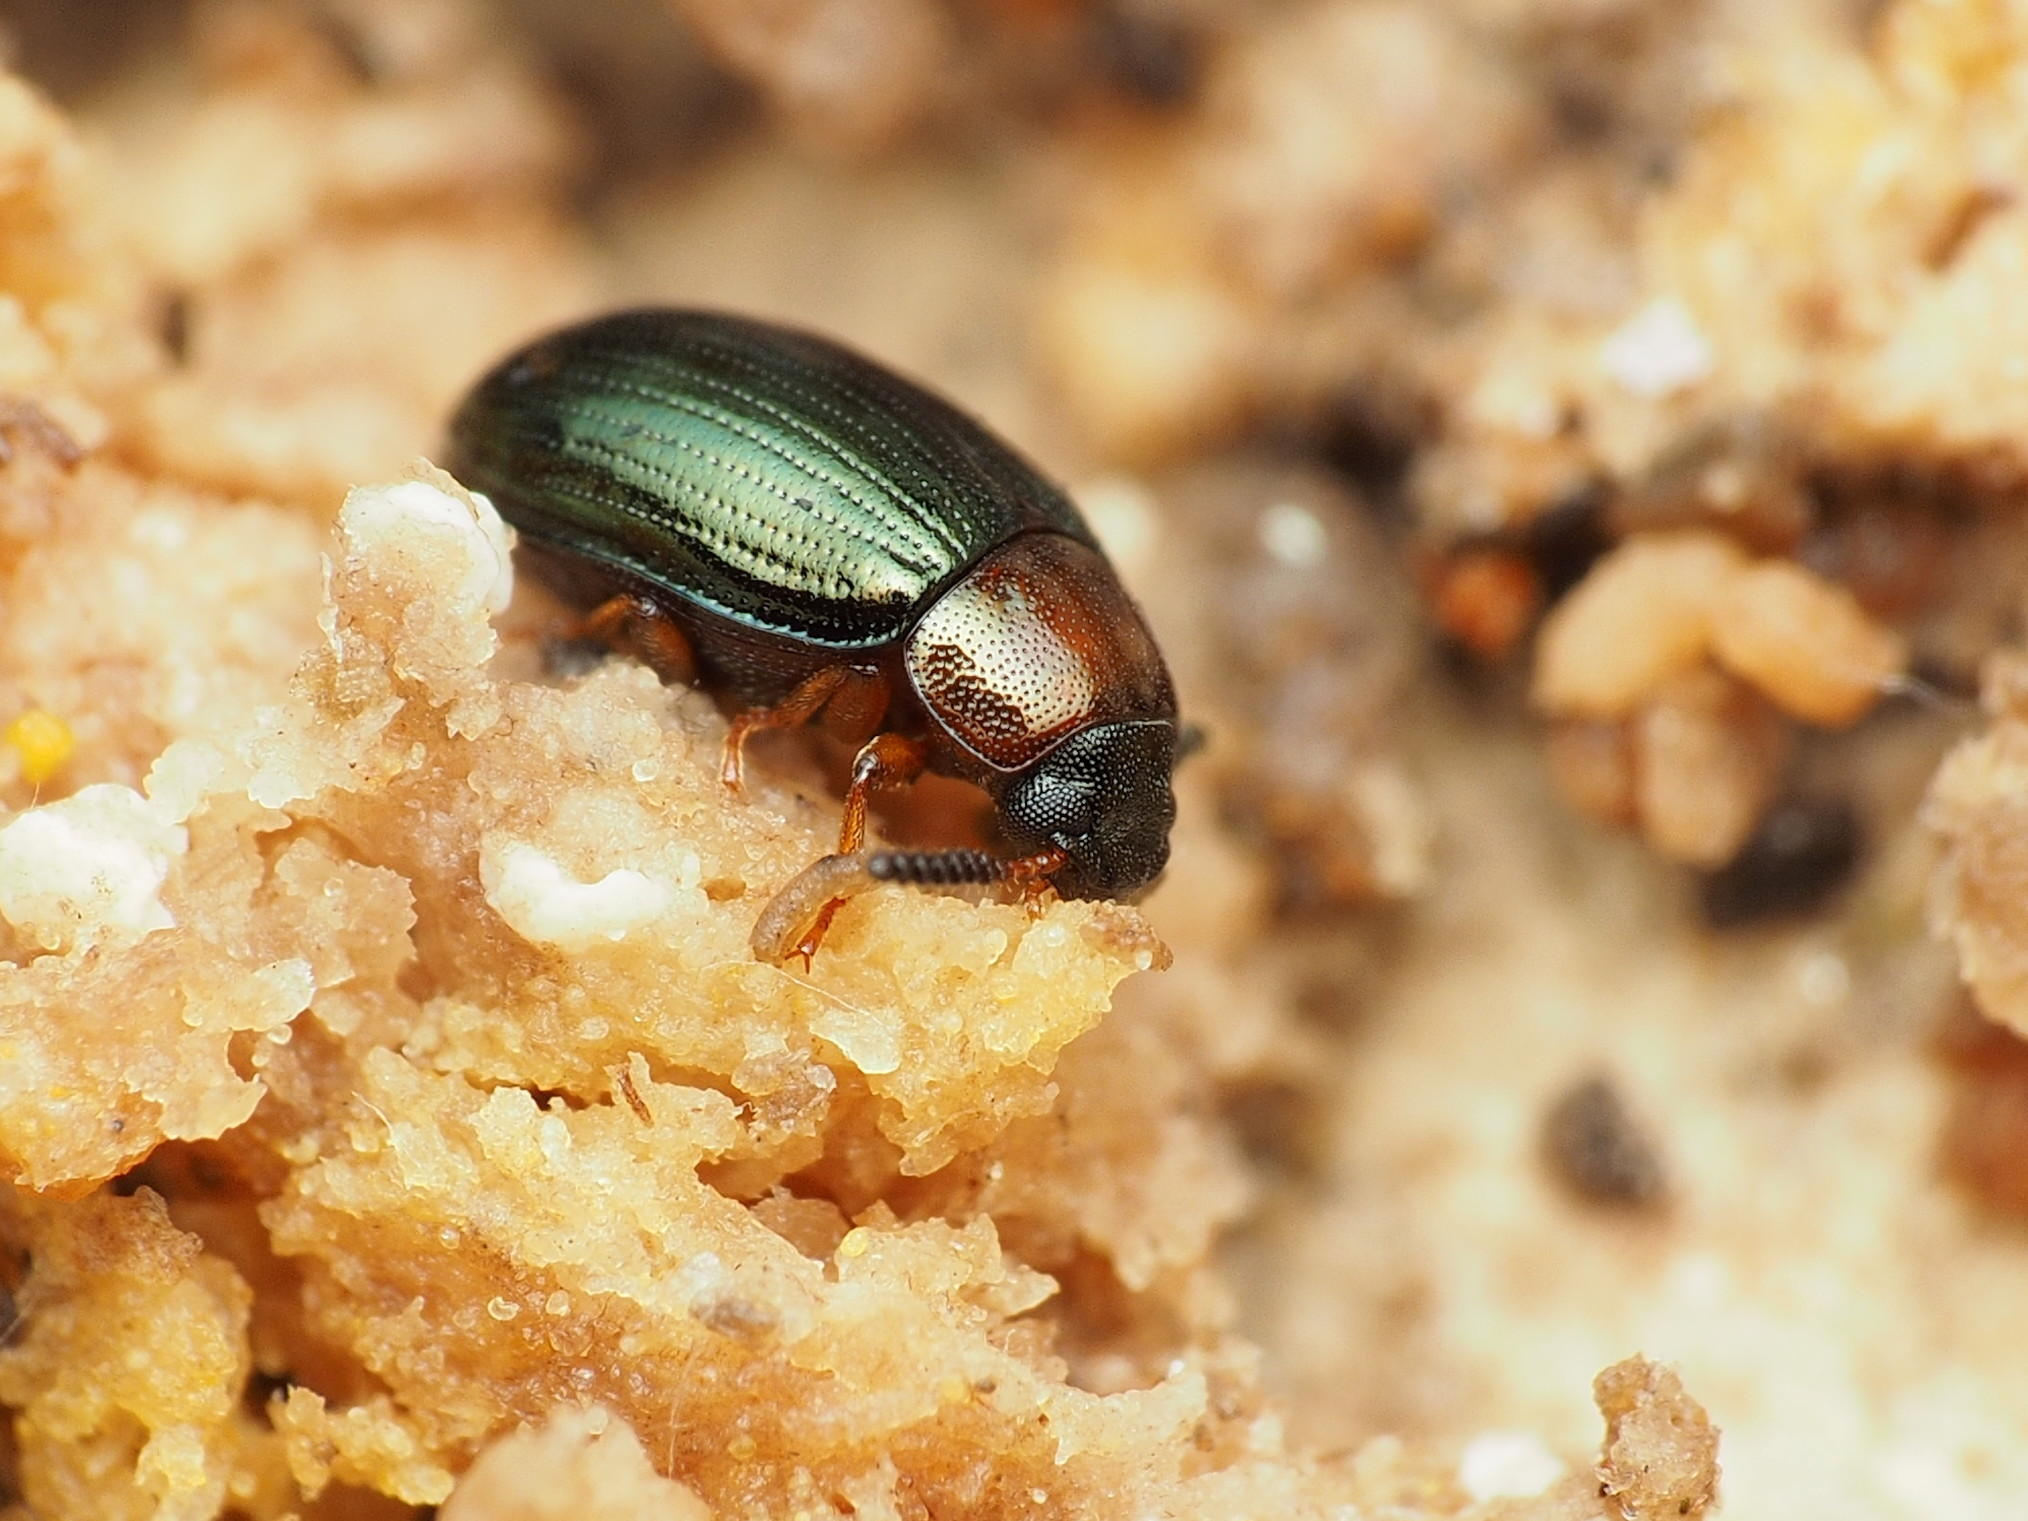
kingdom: Animalia
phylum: Arthropoda
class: Insecta
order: Coleoptera
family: Tenebrionidae
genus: Neomida
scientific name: Neomida bicornis
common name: Two-horned darkling beetle
